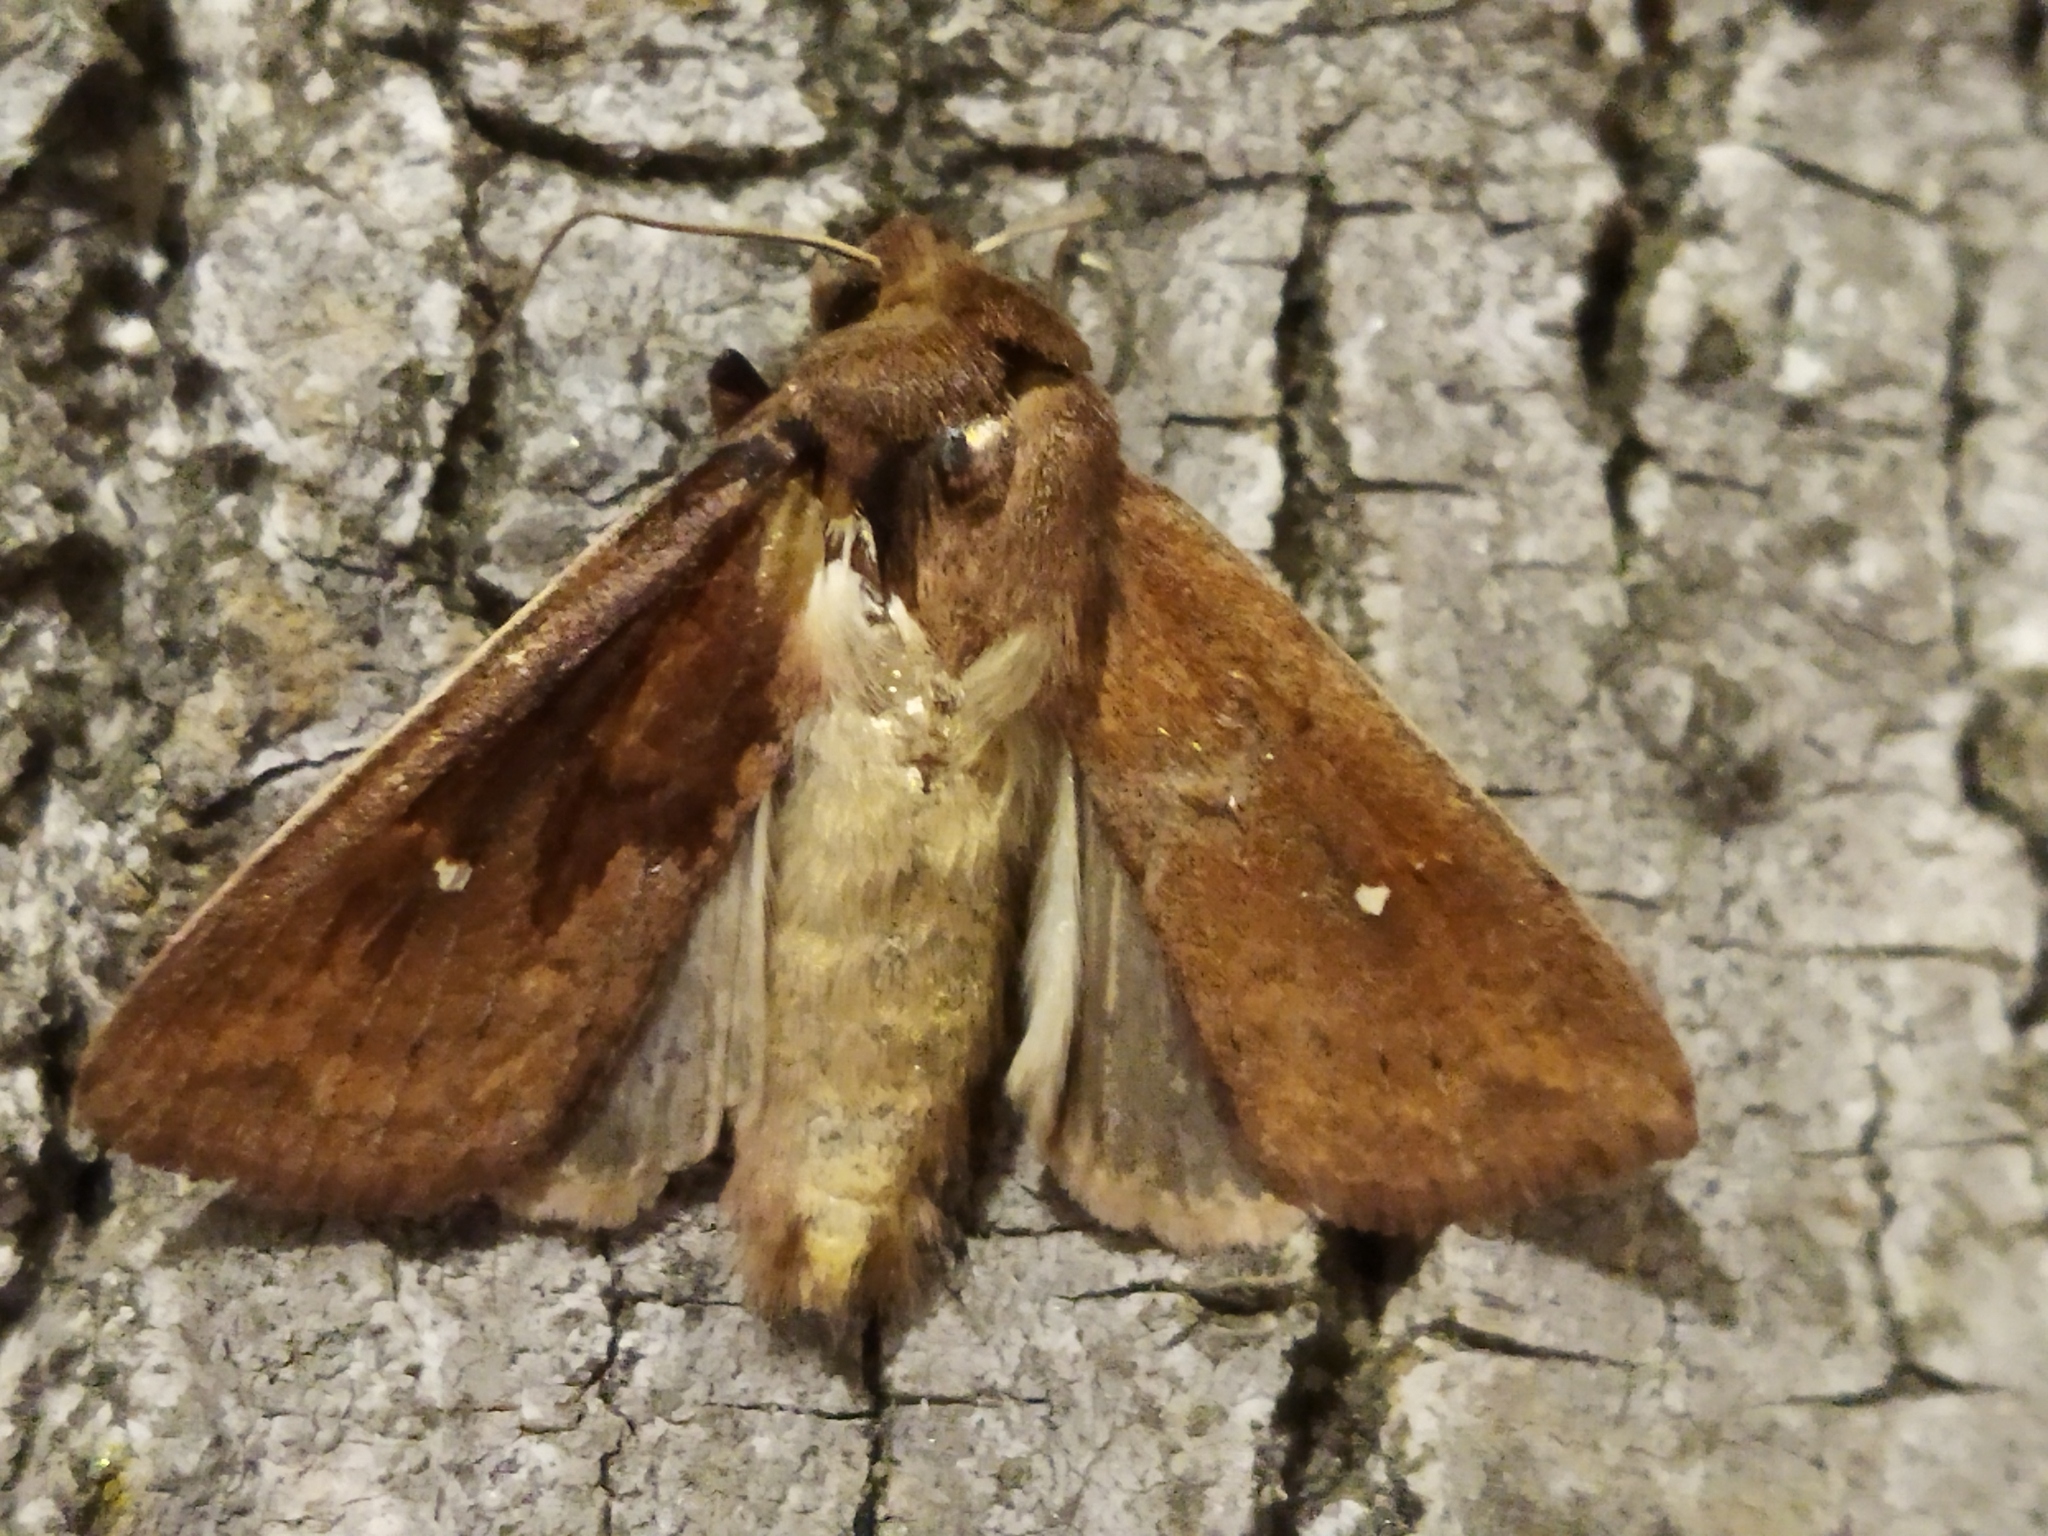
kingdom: Animalia
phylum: Arthropoda
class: Insecta
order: Lepidoptera
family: Noctuidae
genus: Mythimna
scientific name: Mythimna albipuncta
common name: White-point
